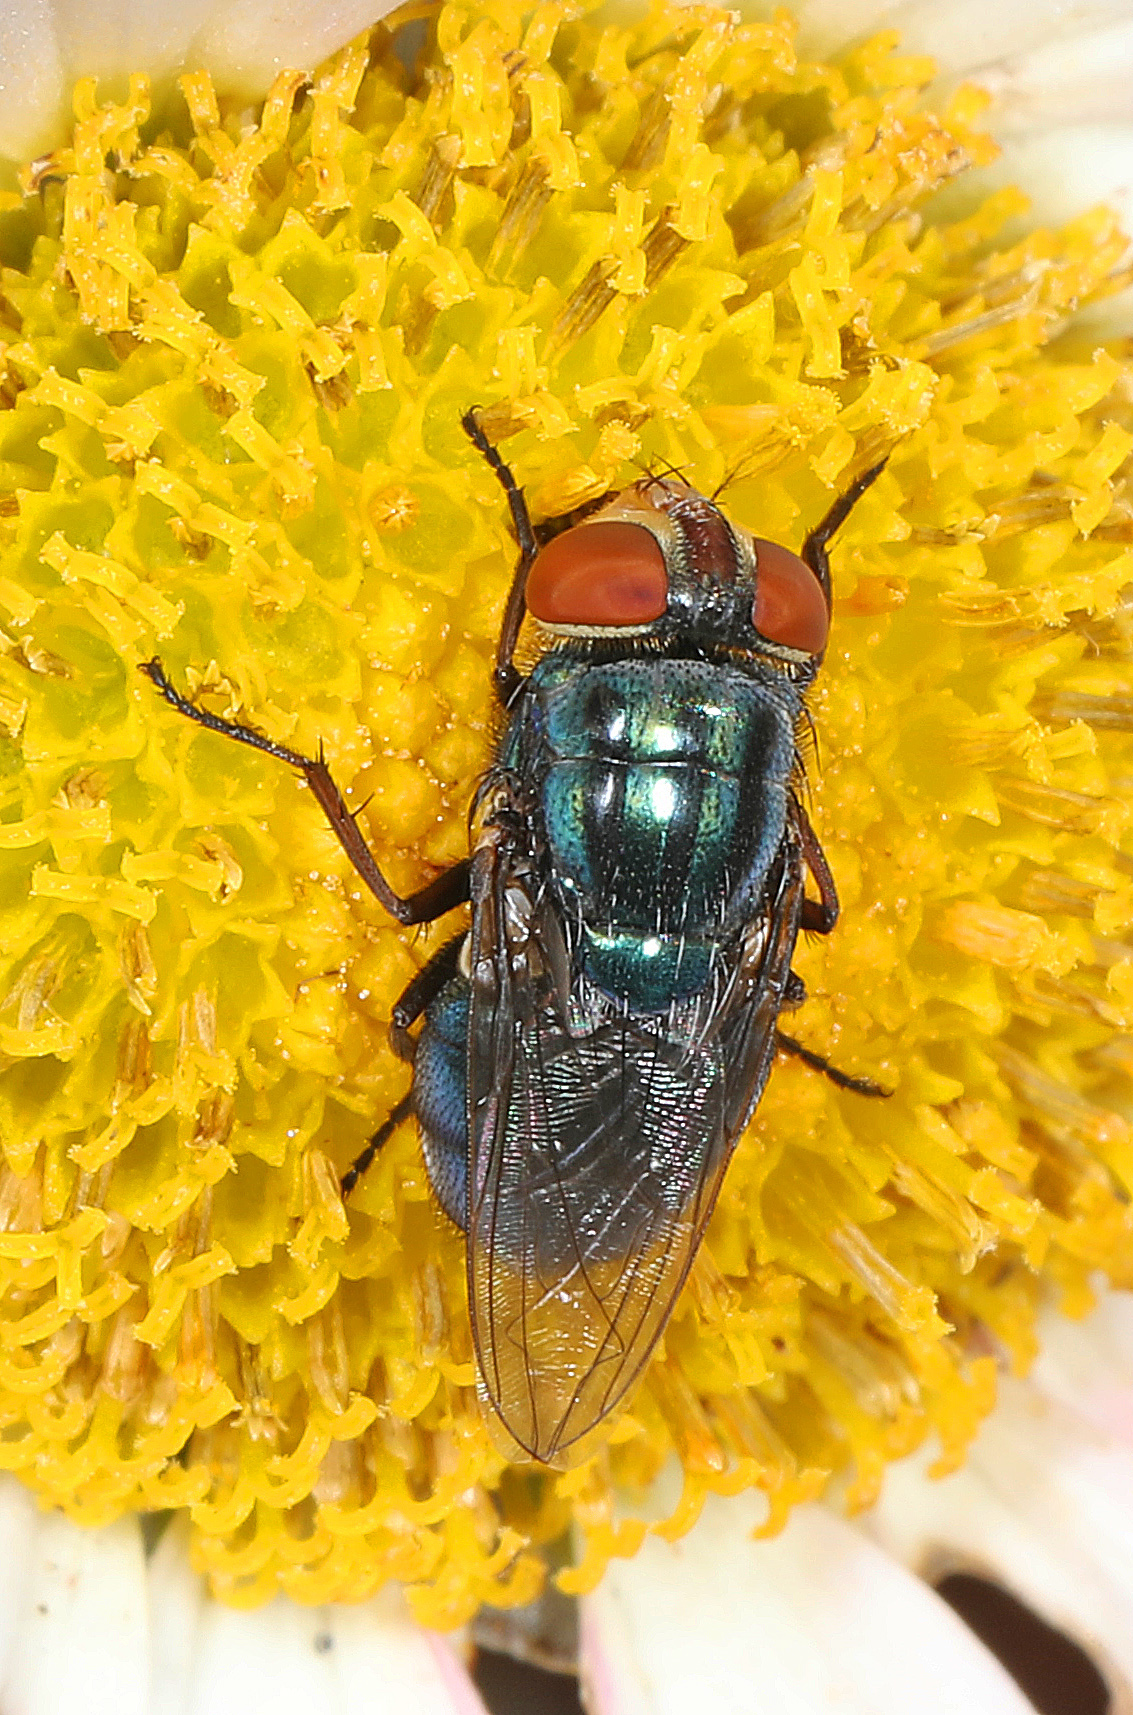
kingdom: Animalia
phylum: Arthropoda
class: Insecta
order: Diptera
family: Calliphoridae
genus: Cochliomyia
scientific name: Cochliomyia macellaria
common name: Secondary screwworm
